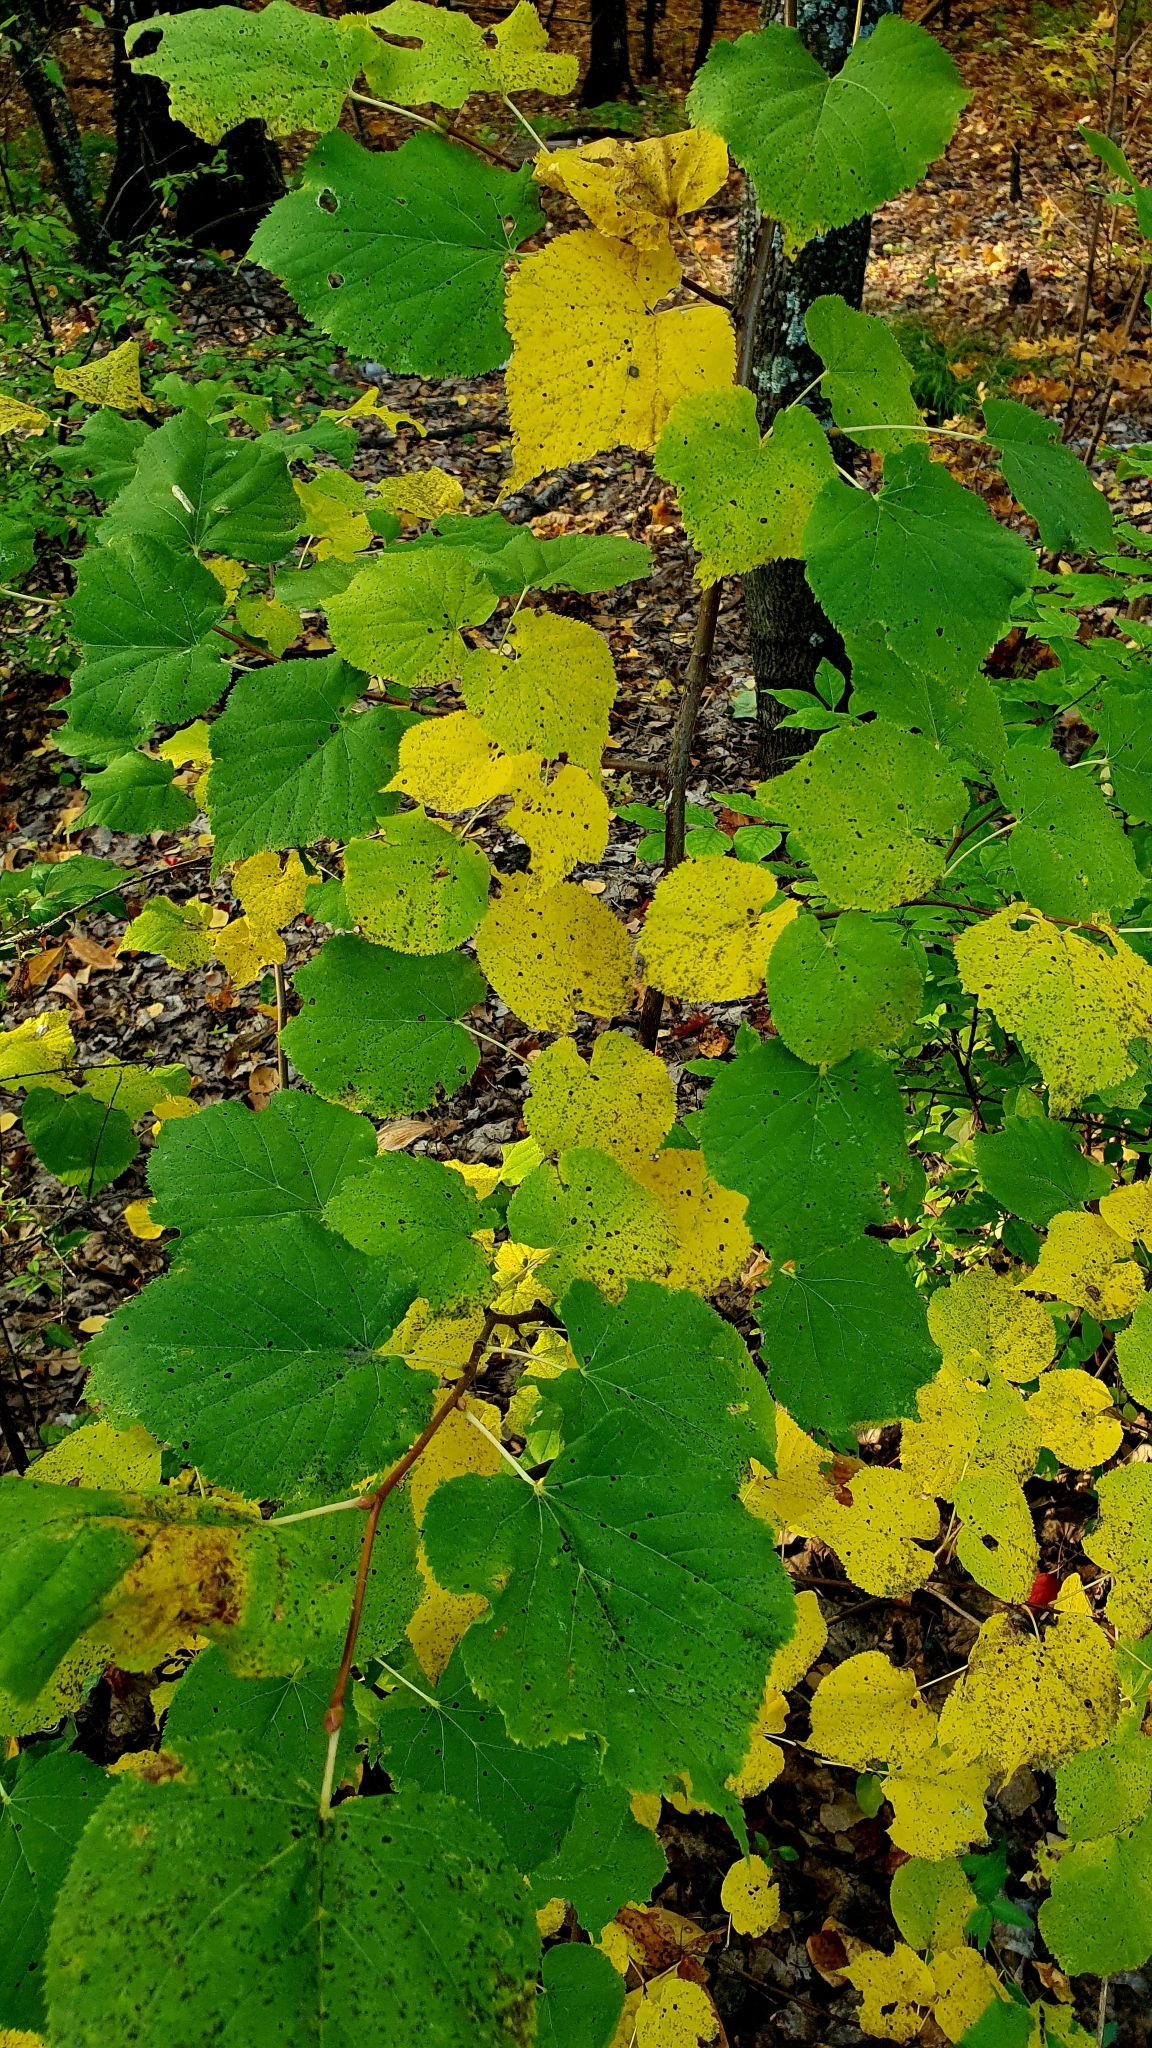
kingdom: Plantae
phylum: Tracheophyta
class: Magnoliopsida
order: Malvales
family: Malvaceae
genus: Tilia
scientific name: Tilia cordata
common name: Small-leaved lime
